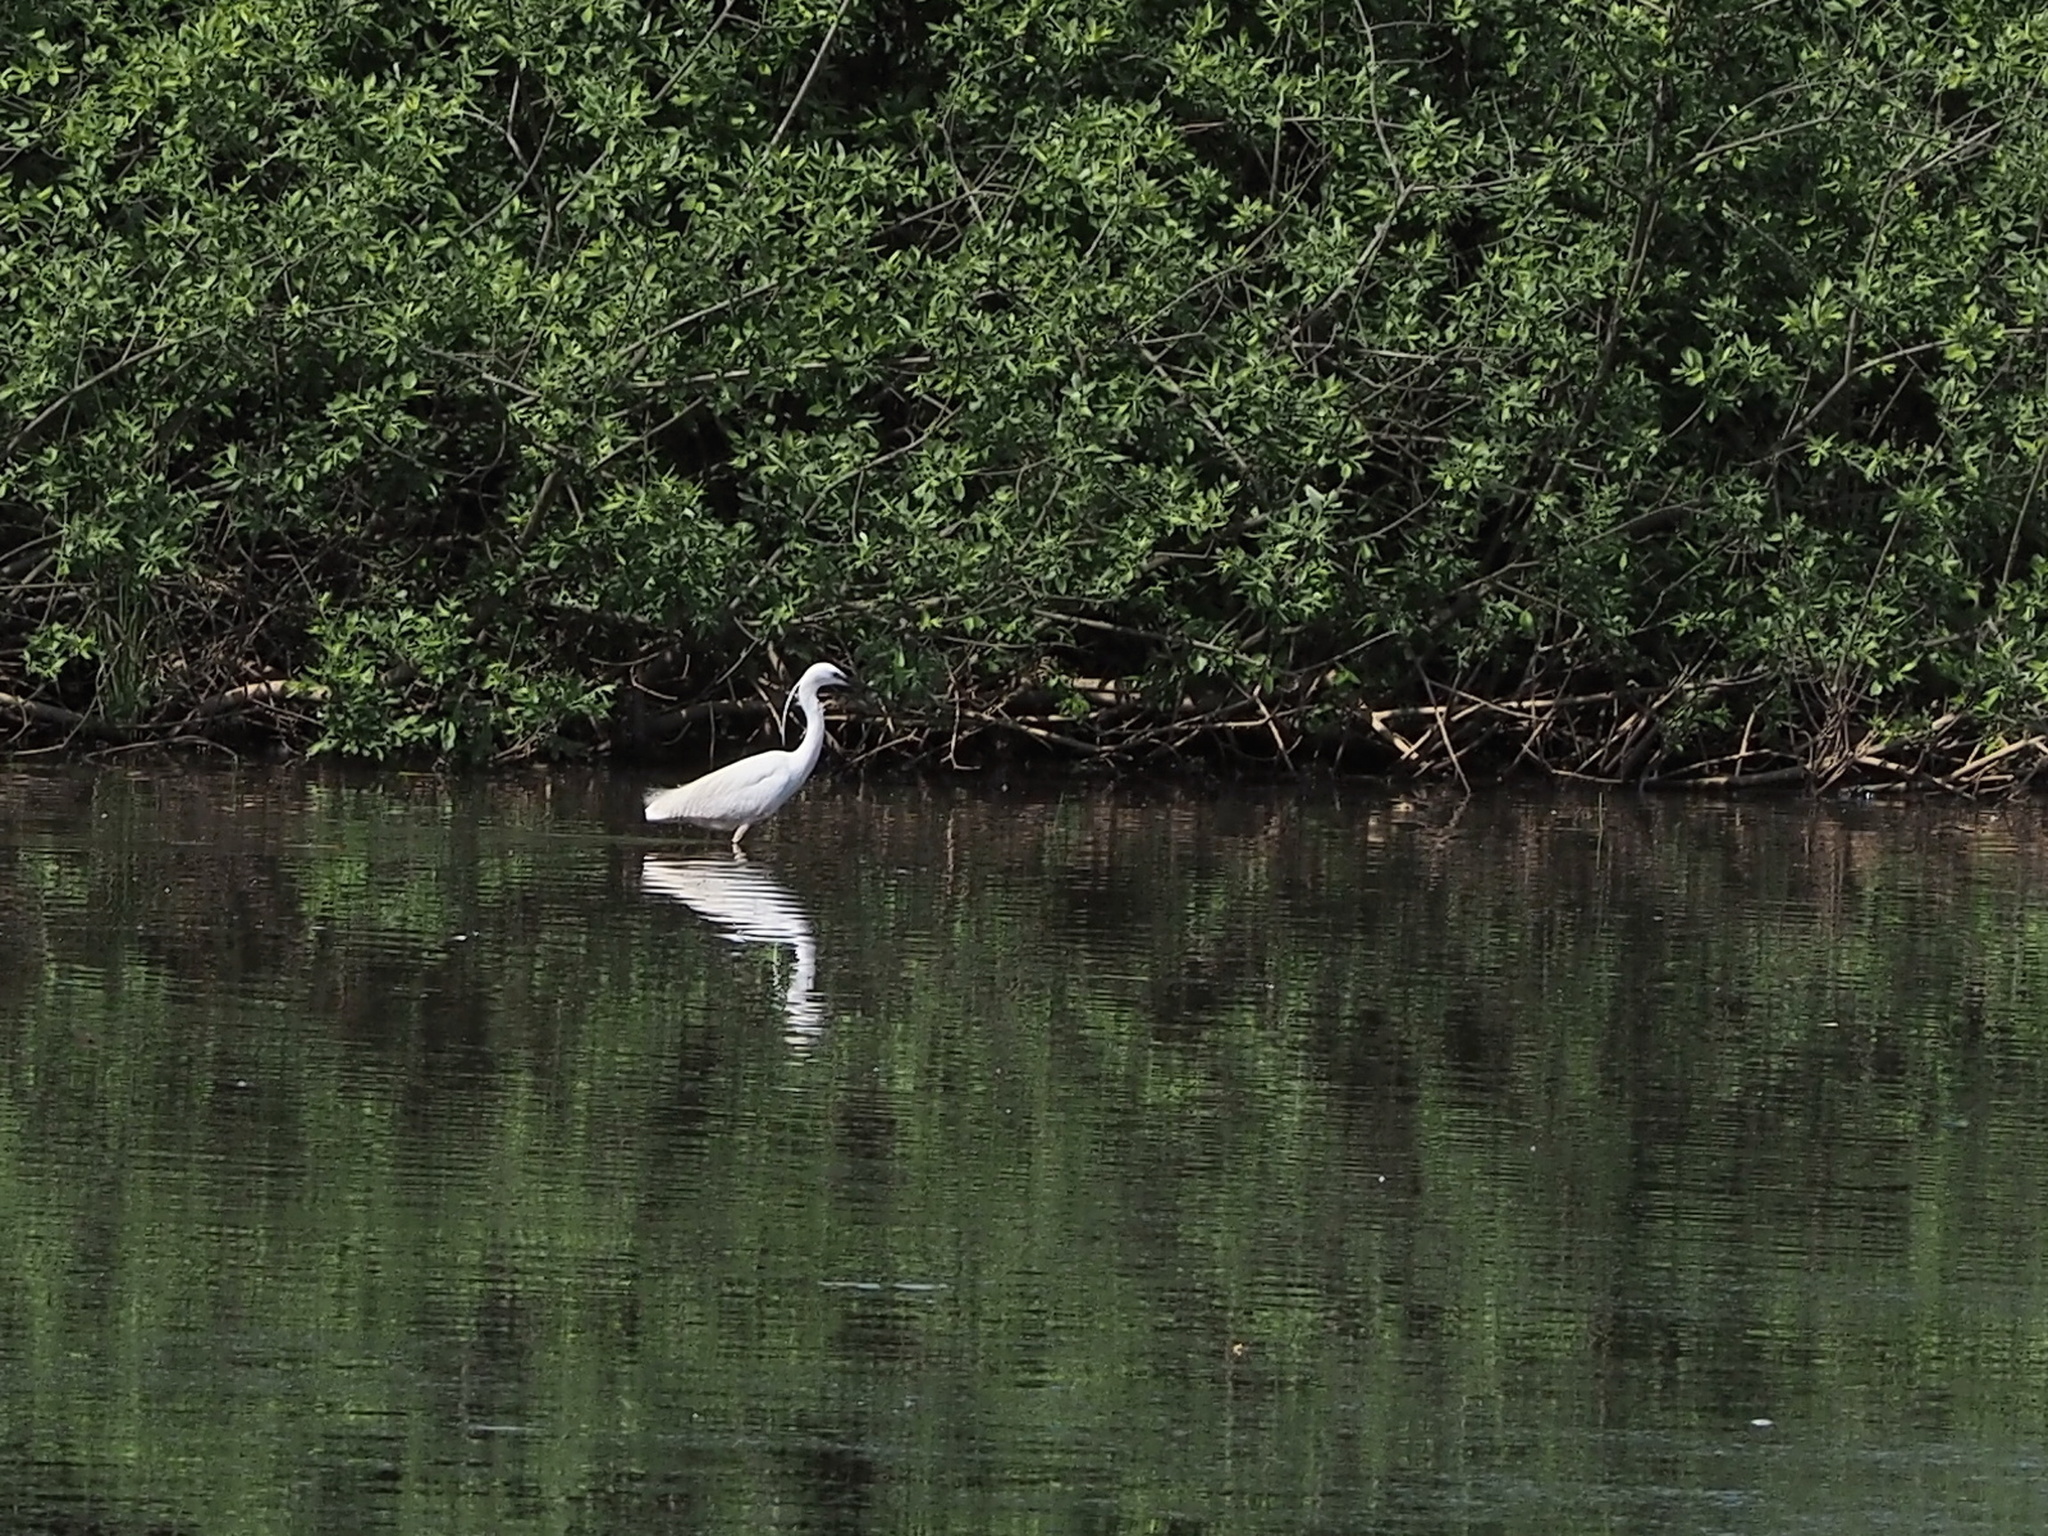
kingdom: Animalia
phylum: Chordata
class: Aves
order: Pelecaniformes
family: Ardeidae
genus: Egretta
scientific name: Egretta garzetta
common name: Little egret
